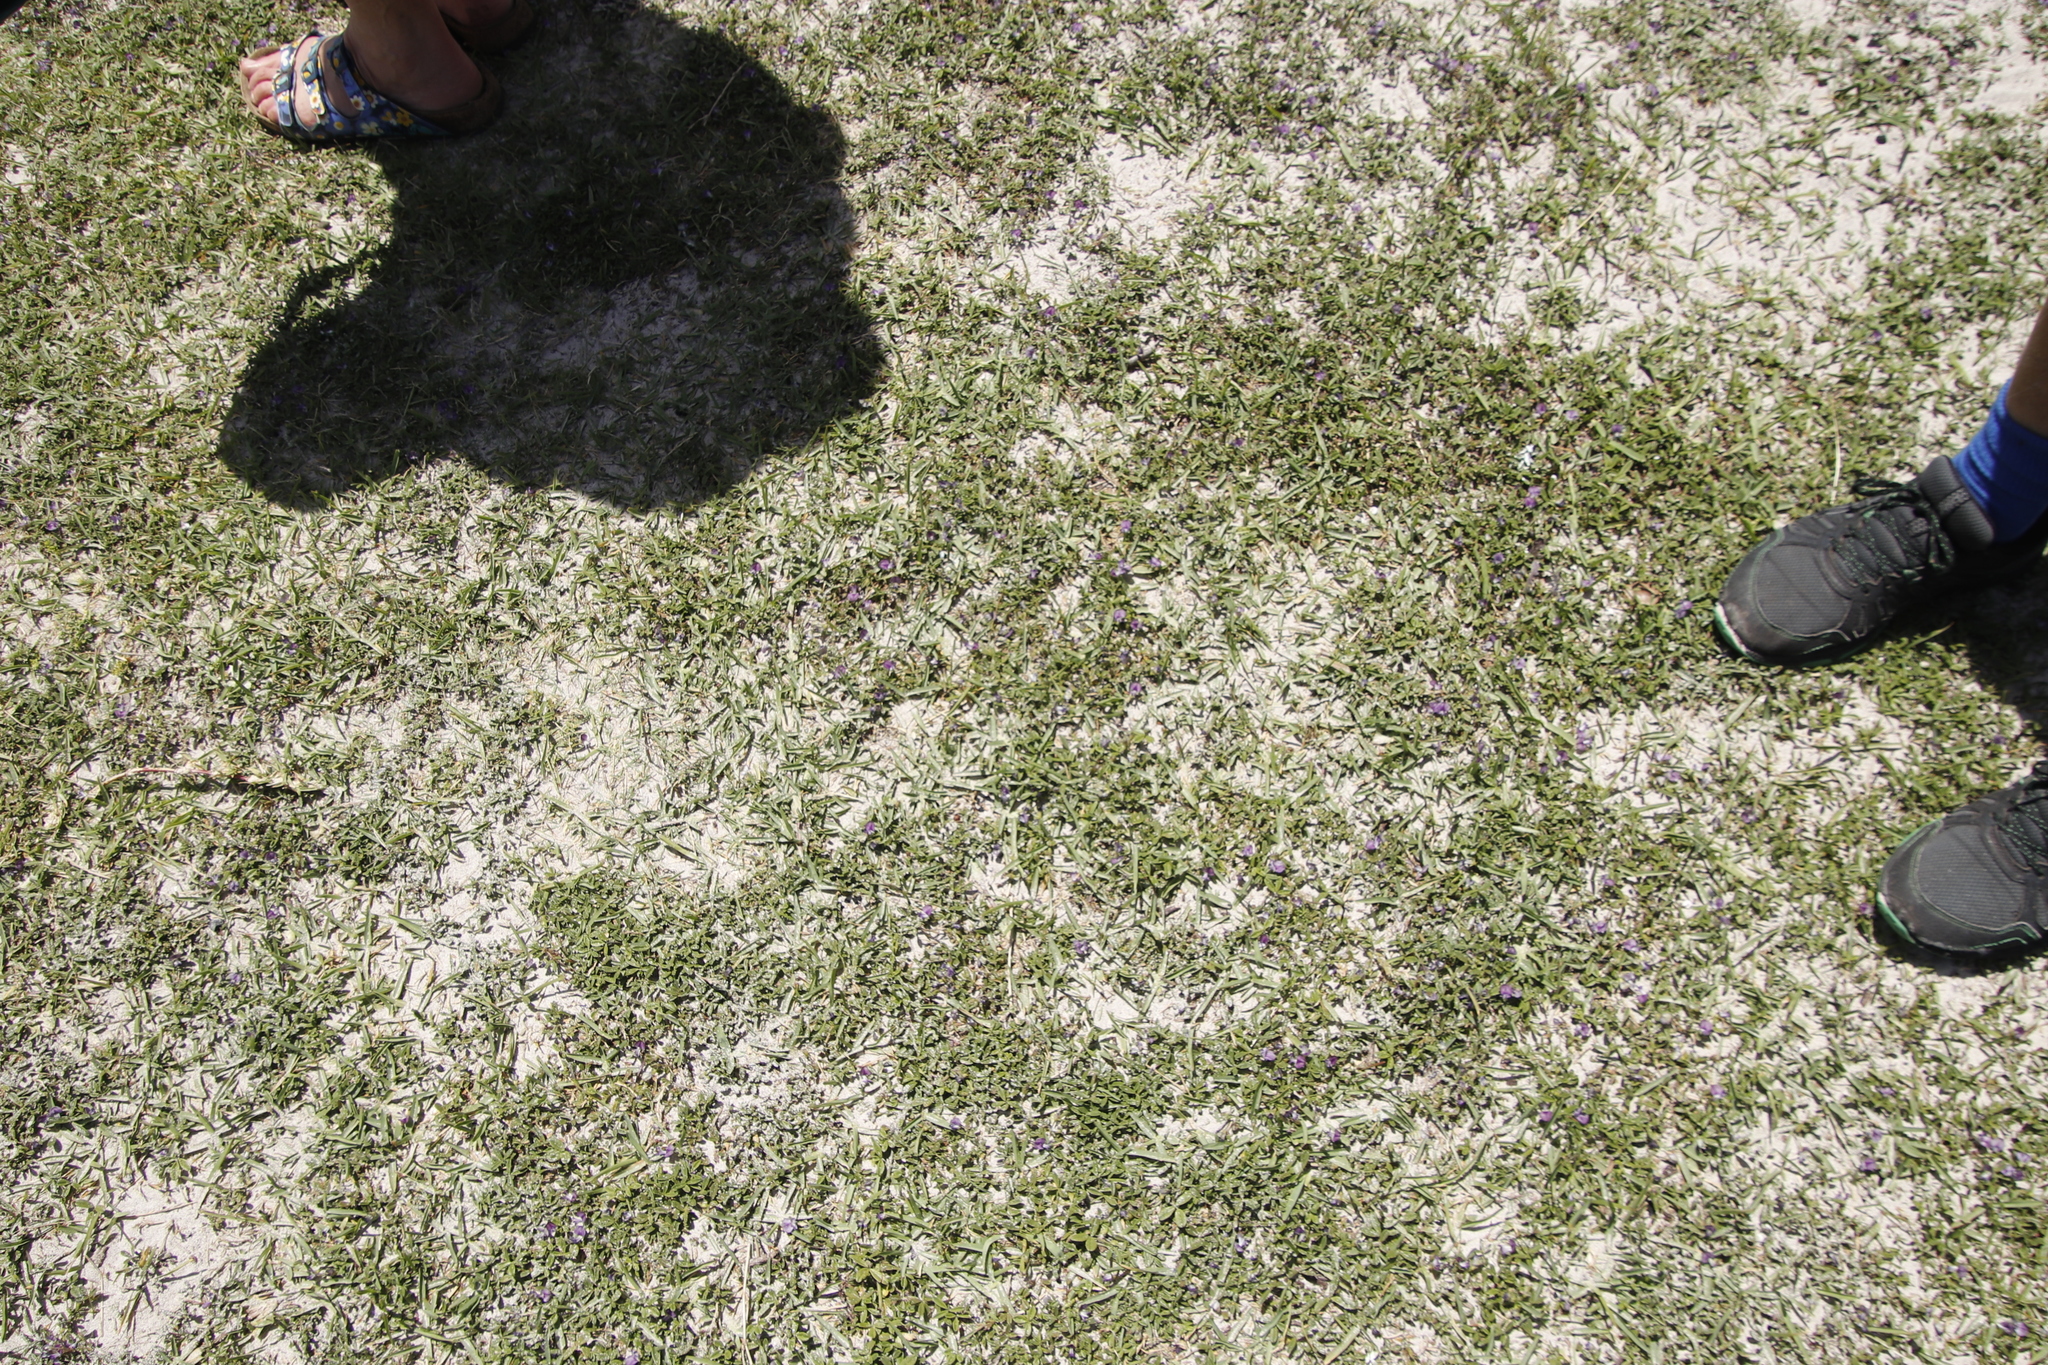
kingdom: Plantae
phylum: Tracheophyta
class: Magnoliopsida
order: Fabales
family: Fabaceae
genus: Psoralea
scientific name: Psoralea repens
